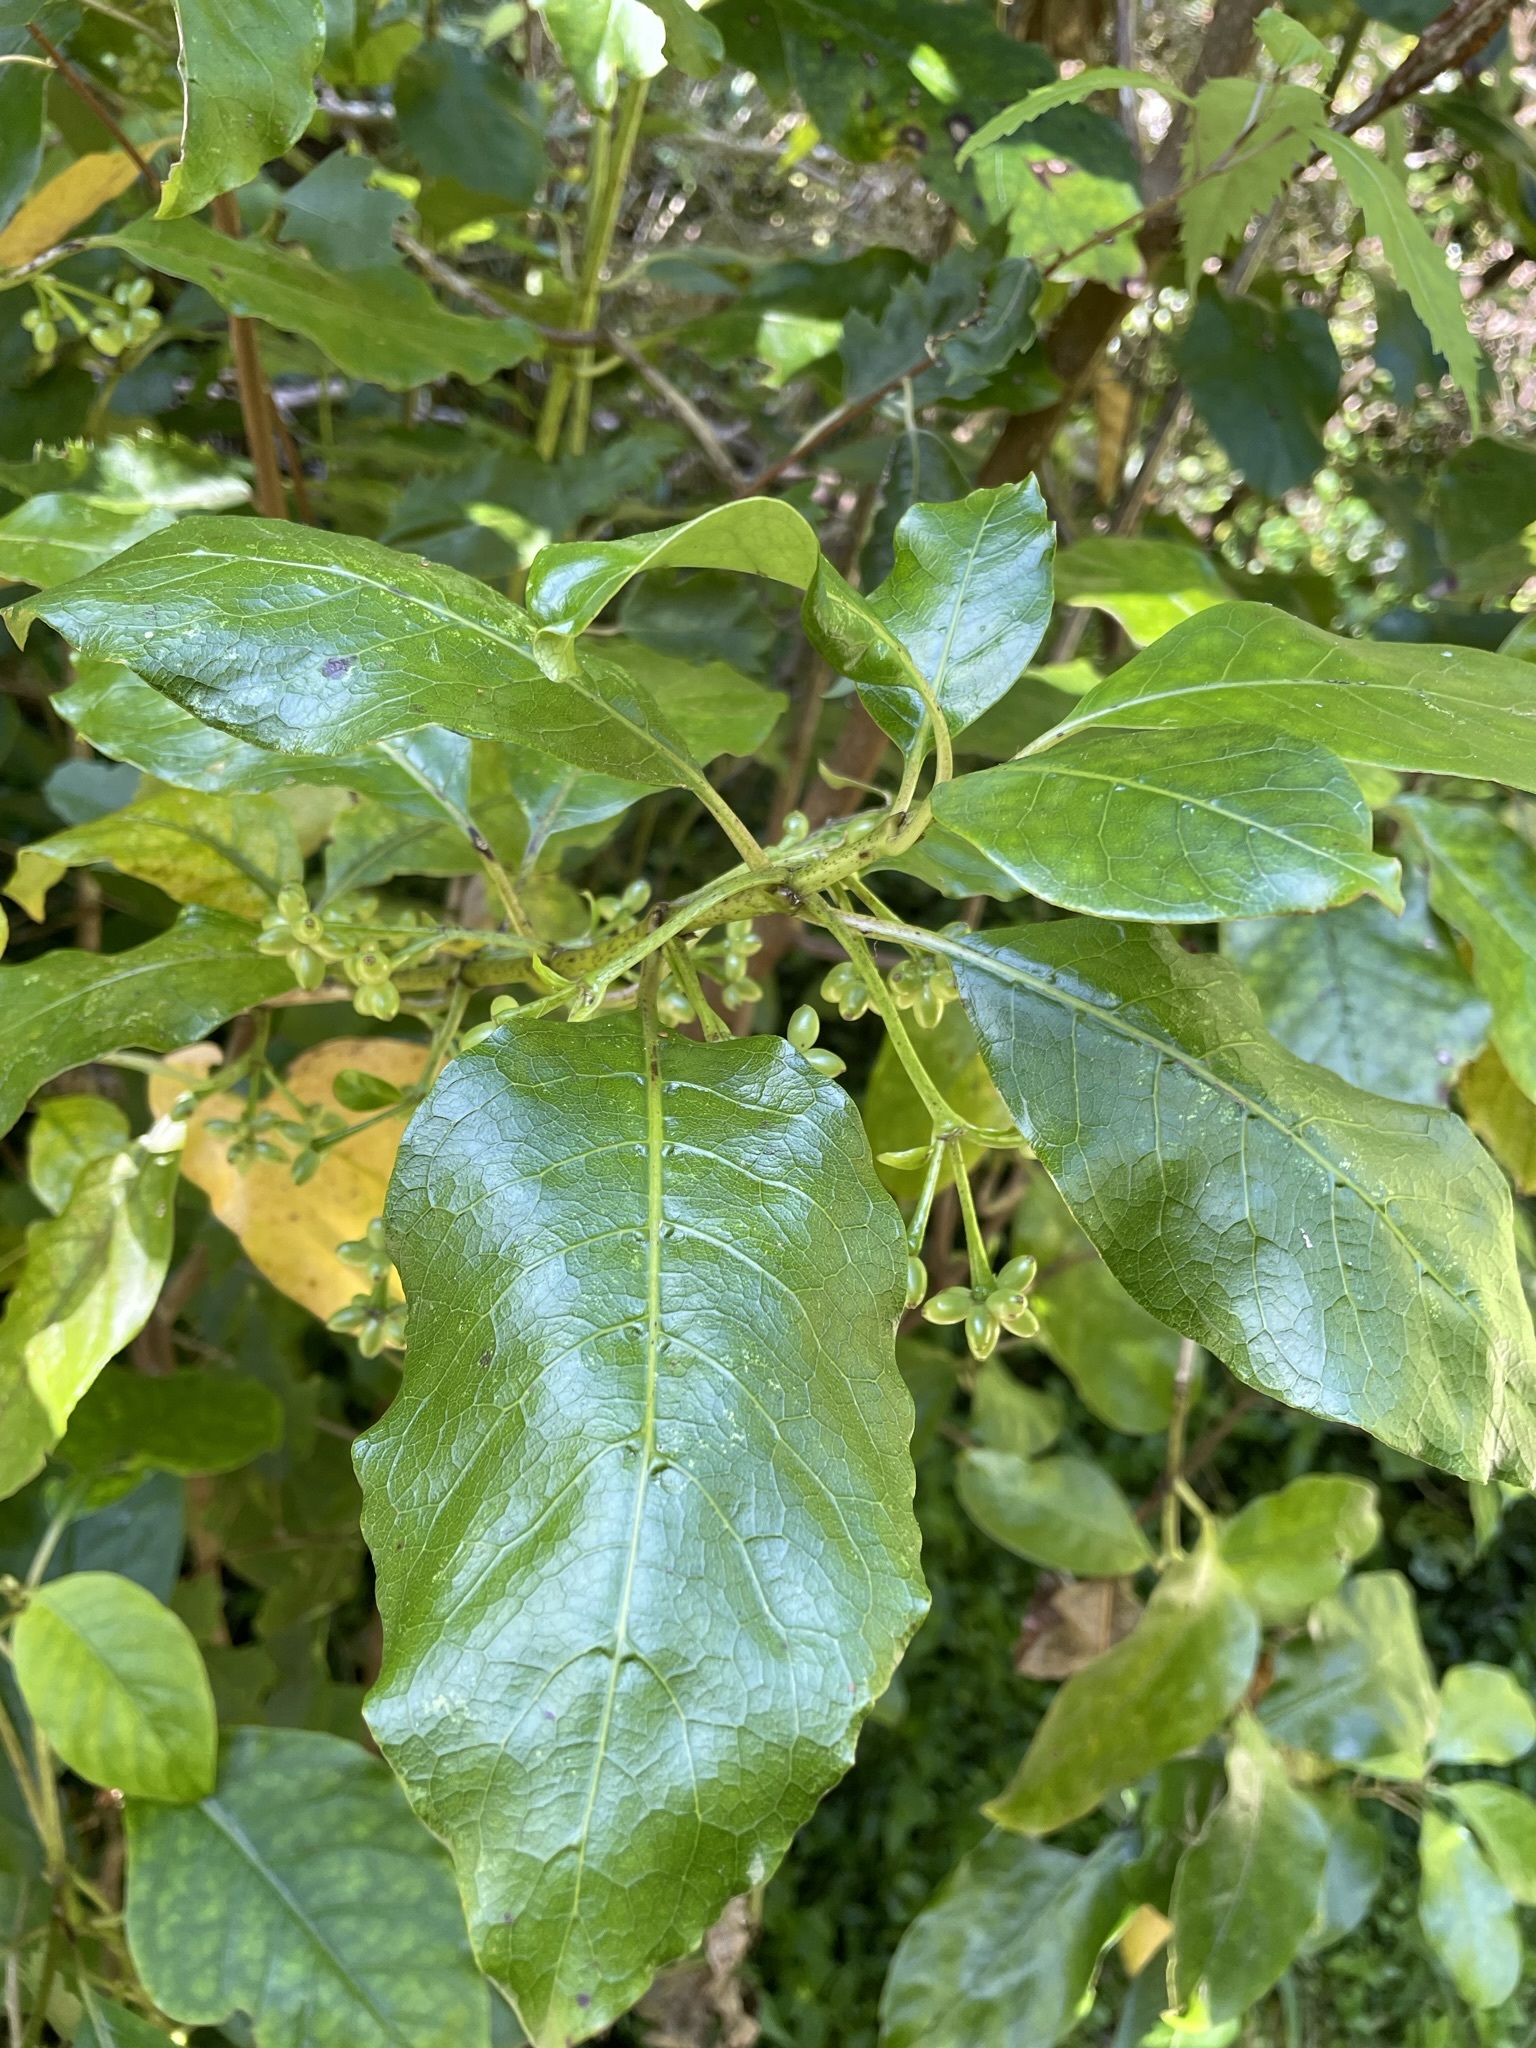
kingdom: Plantae
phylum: Tracheophyta
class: Magnoliopsida
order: Gentianales
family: Rubiaceae
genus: Coprosma
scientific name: Coprosma autumnalis
